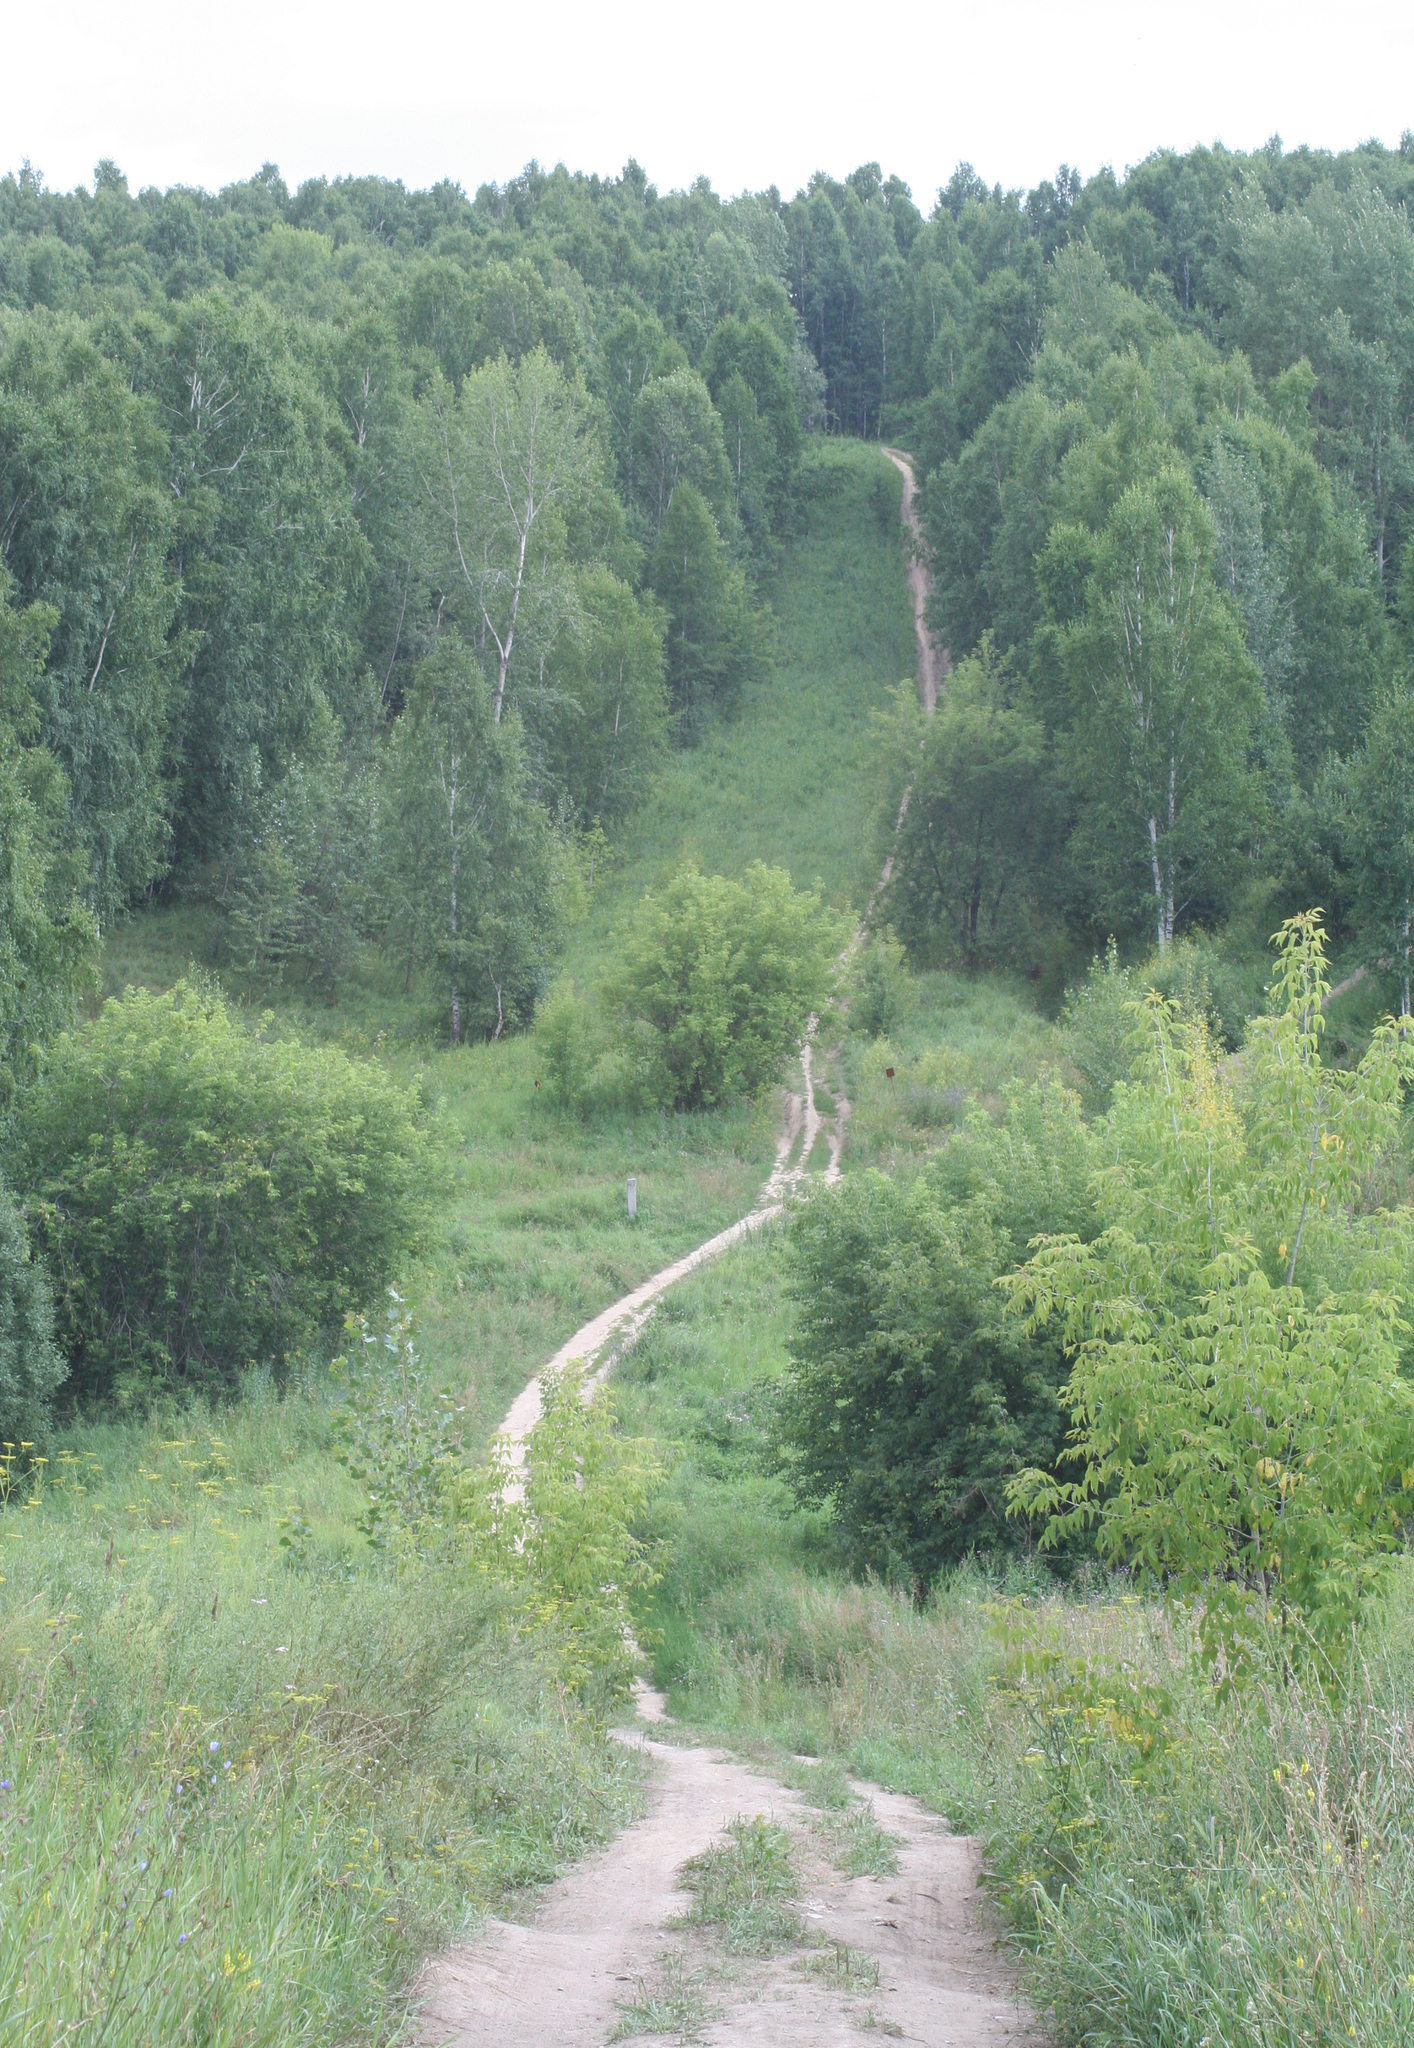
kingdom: Plantae
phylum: Tracheophyta
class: Magnoliopsida
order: Fagales
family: Betulaceae
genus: Betula
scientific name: Betula pendula
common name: Silver birch
